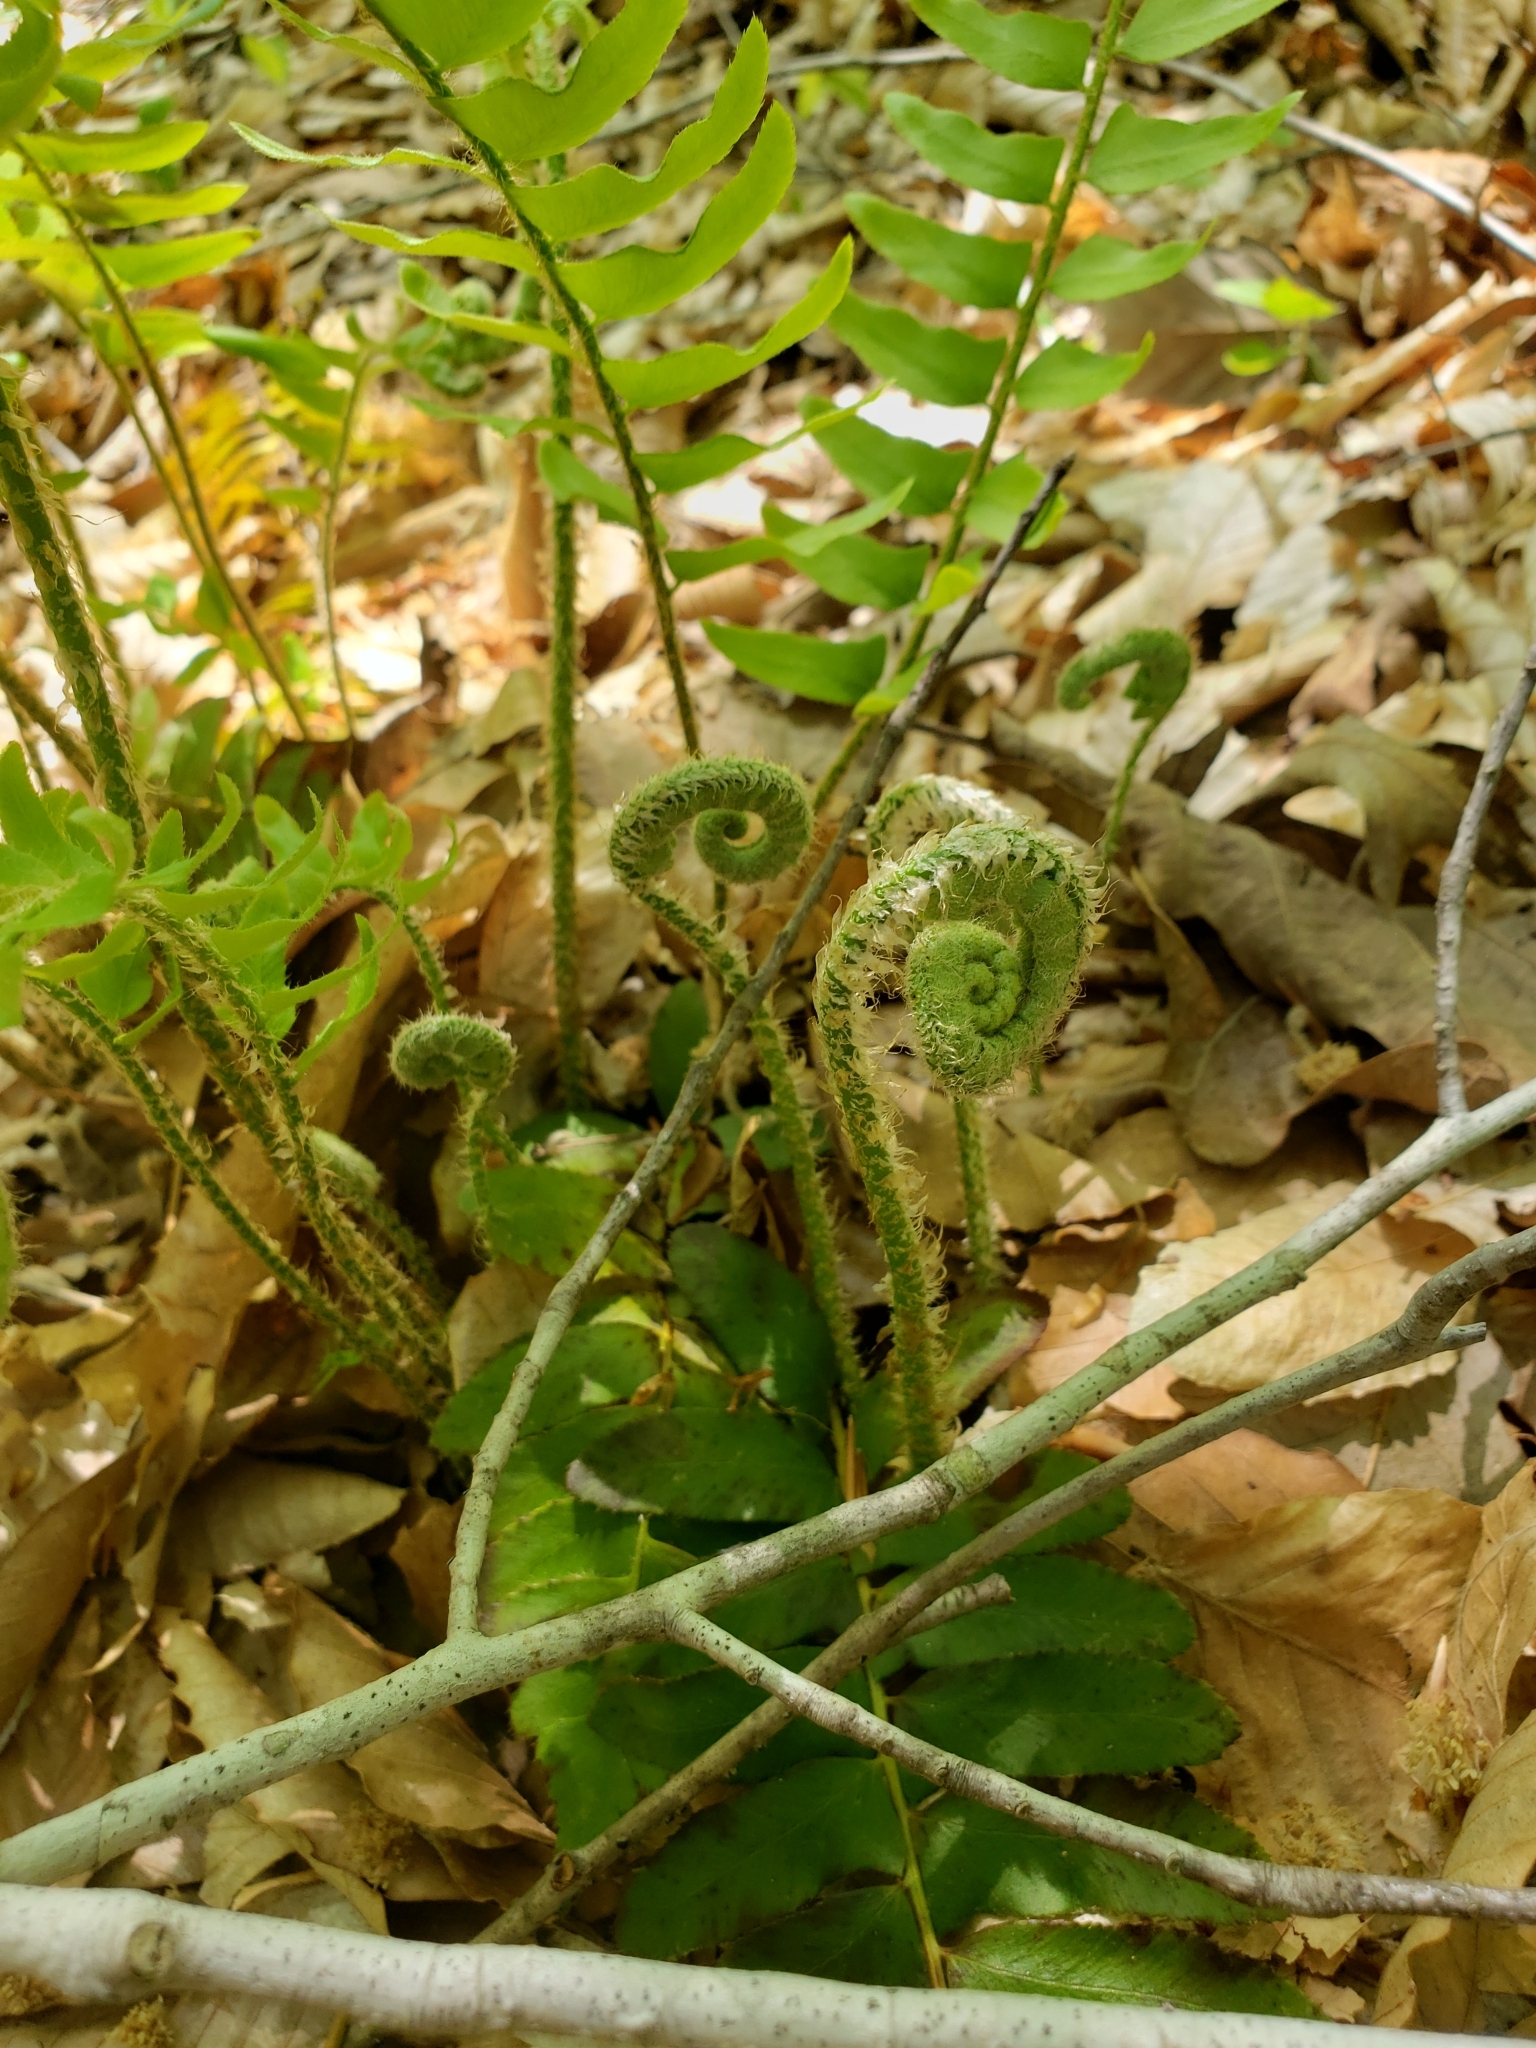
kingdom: Plantae
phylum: Tracheophyta
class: Polypodiopsida
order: Polypodiales
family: Dryopteridaceae
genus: Polystichum
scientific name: Polystichum acrostichoides
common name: Christmas fern
